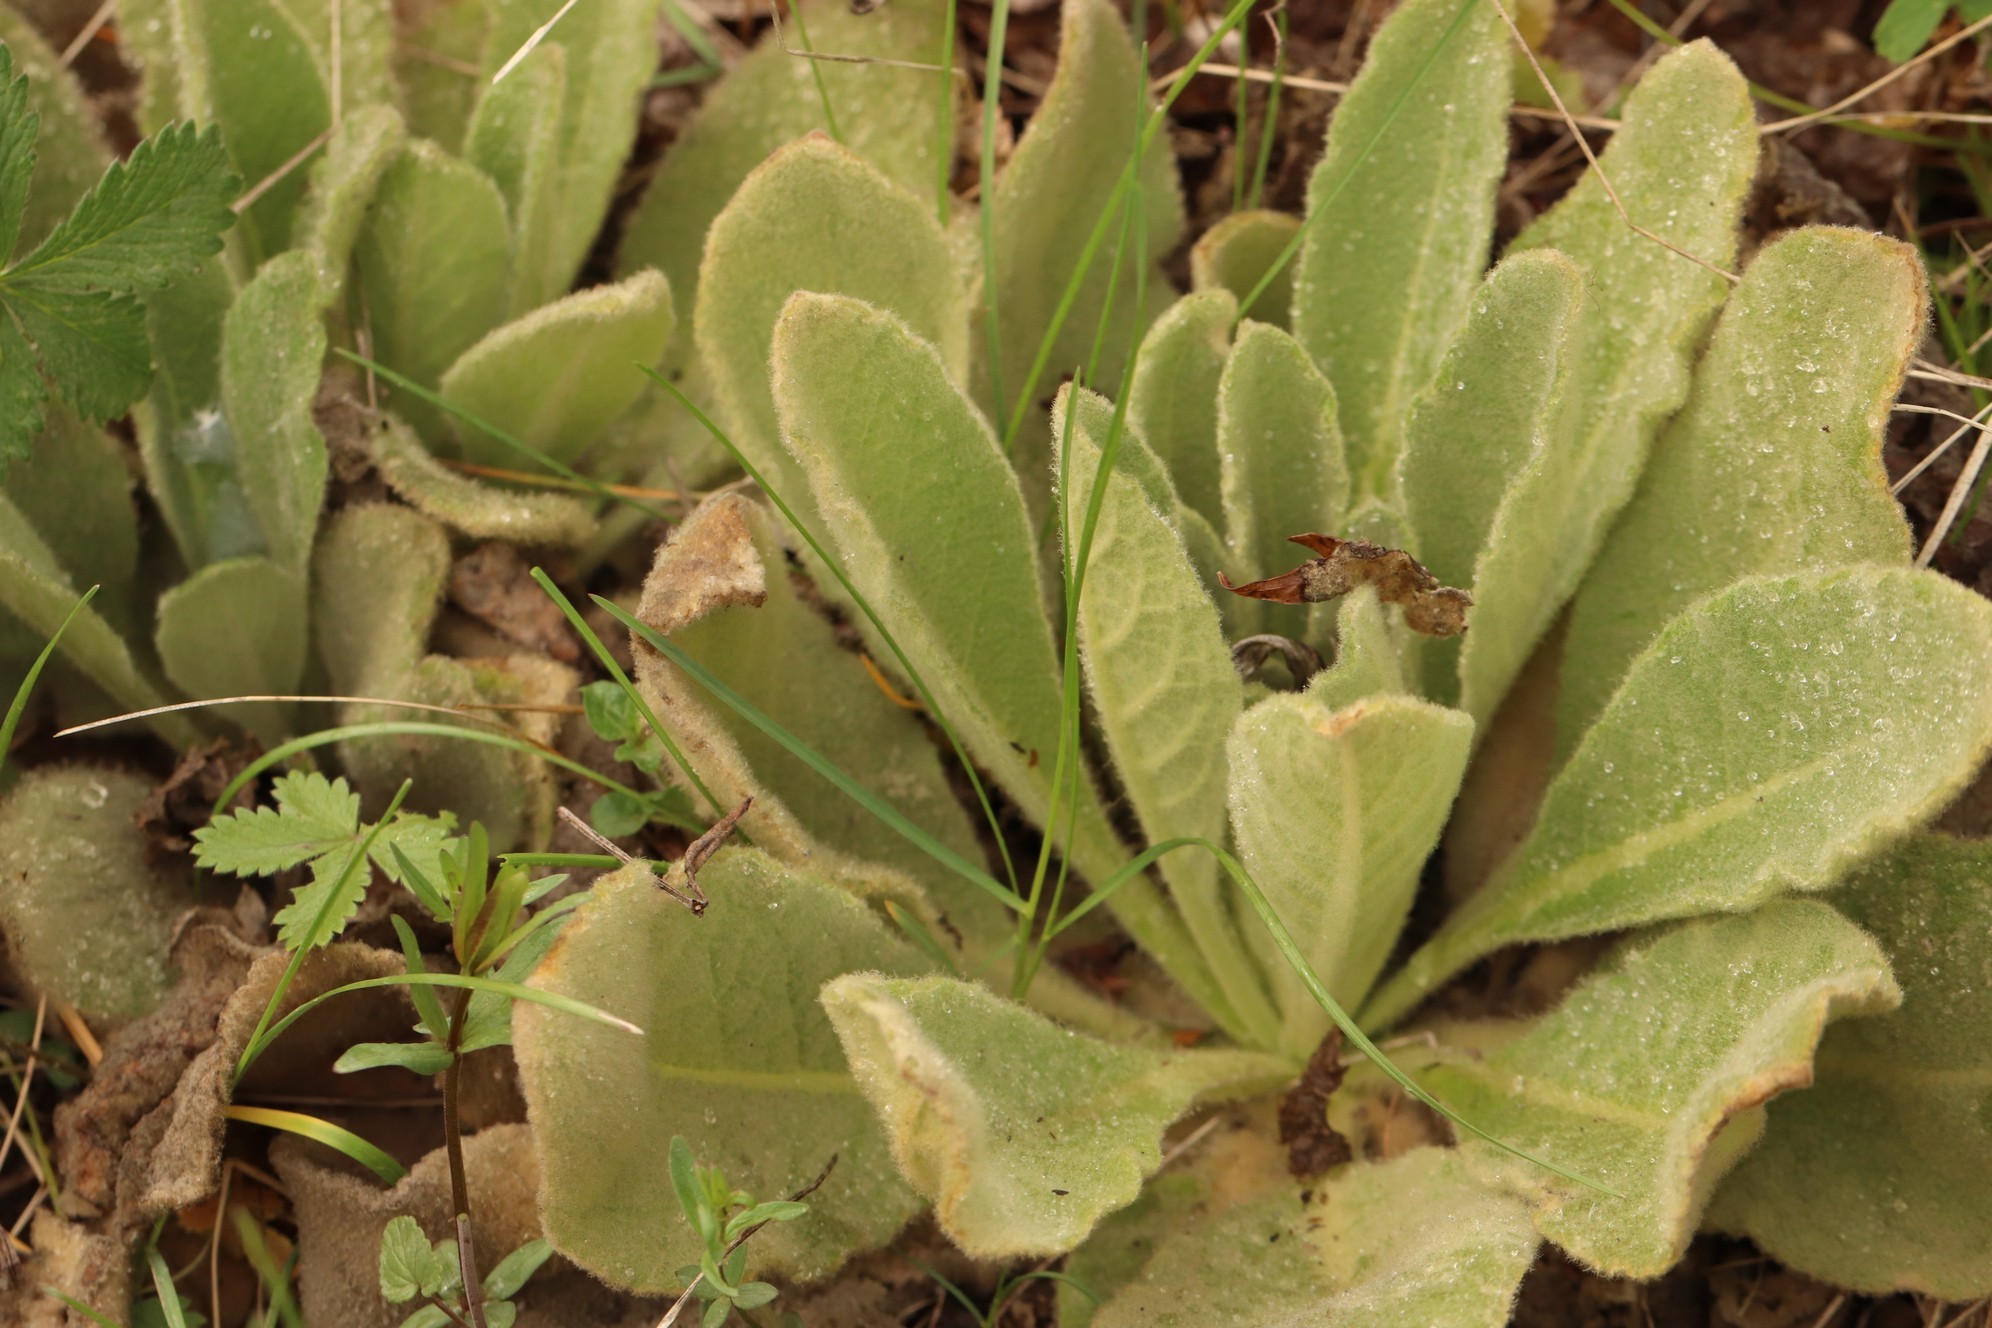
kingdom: Plantae
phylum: Tracheophyta
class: Magnoliopsida
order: Lamiales
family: Scrophulariaceae
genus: Verbascum
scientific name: Verbascum thapsus
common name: Common mullein
